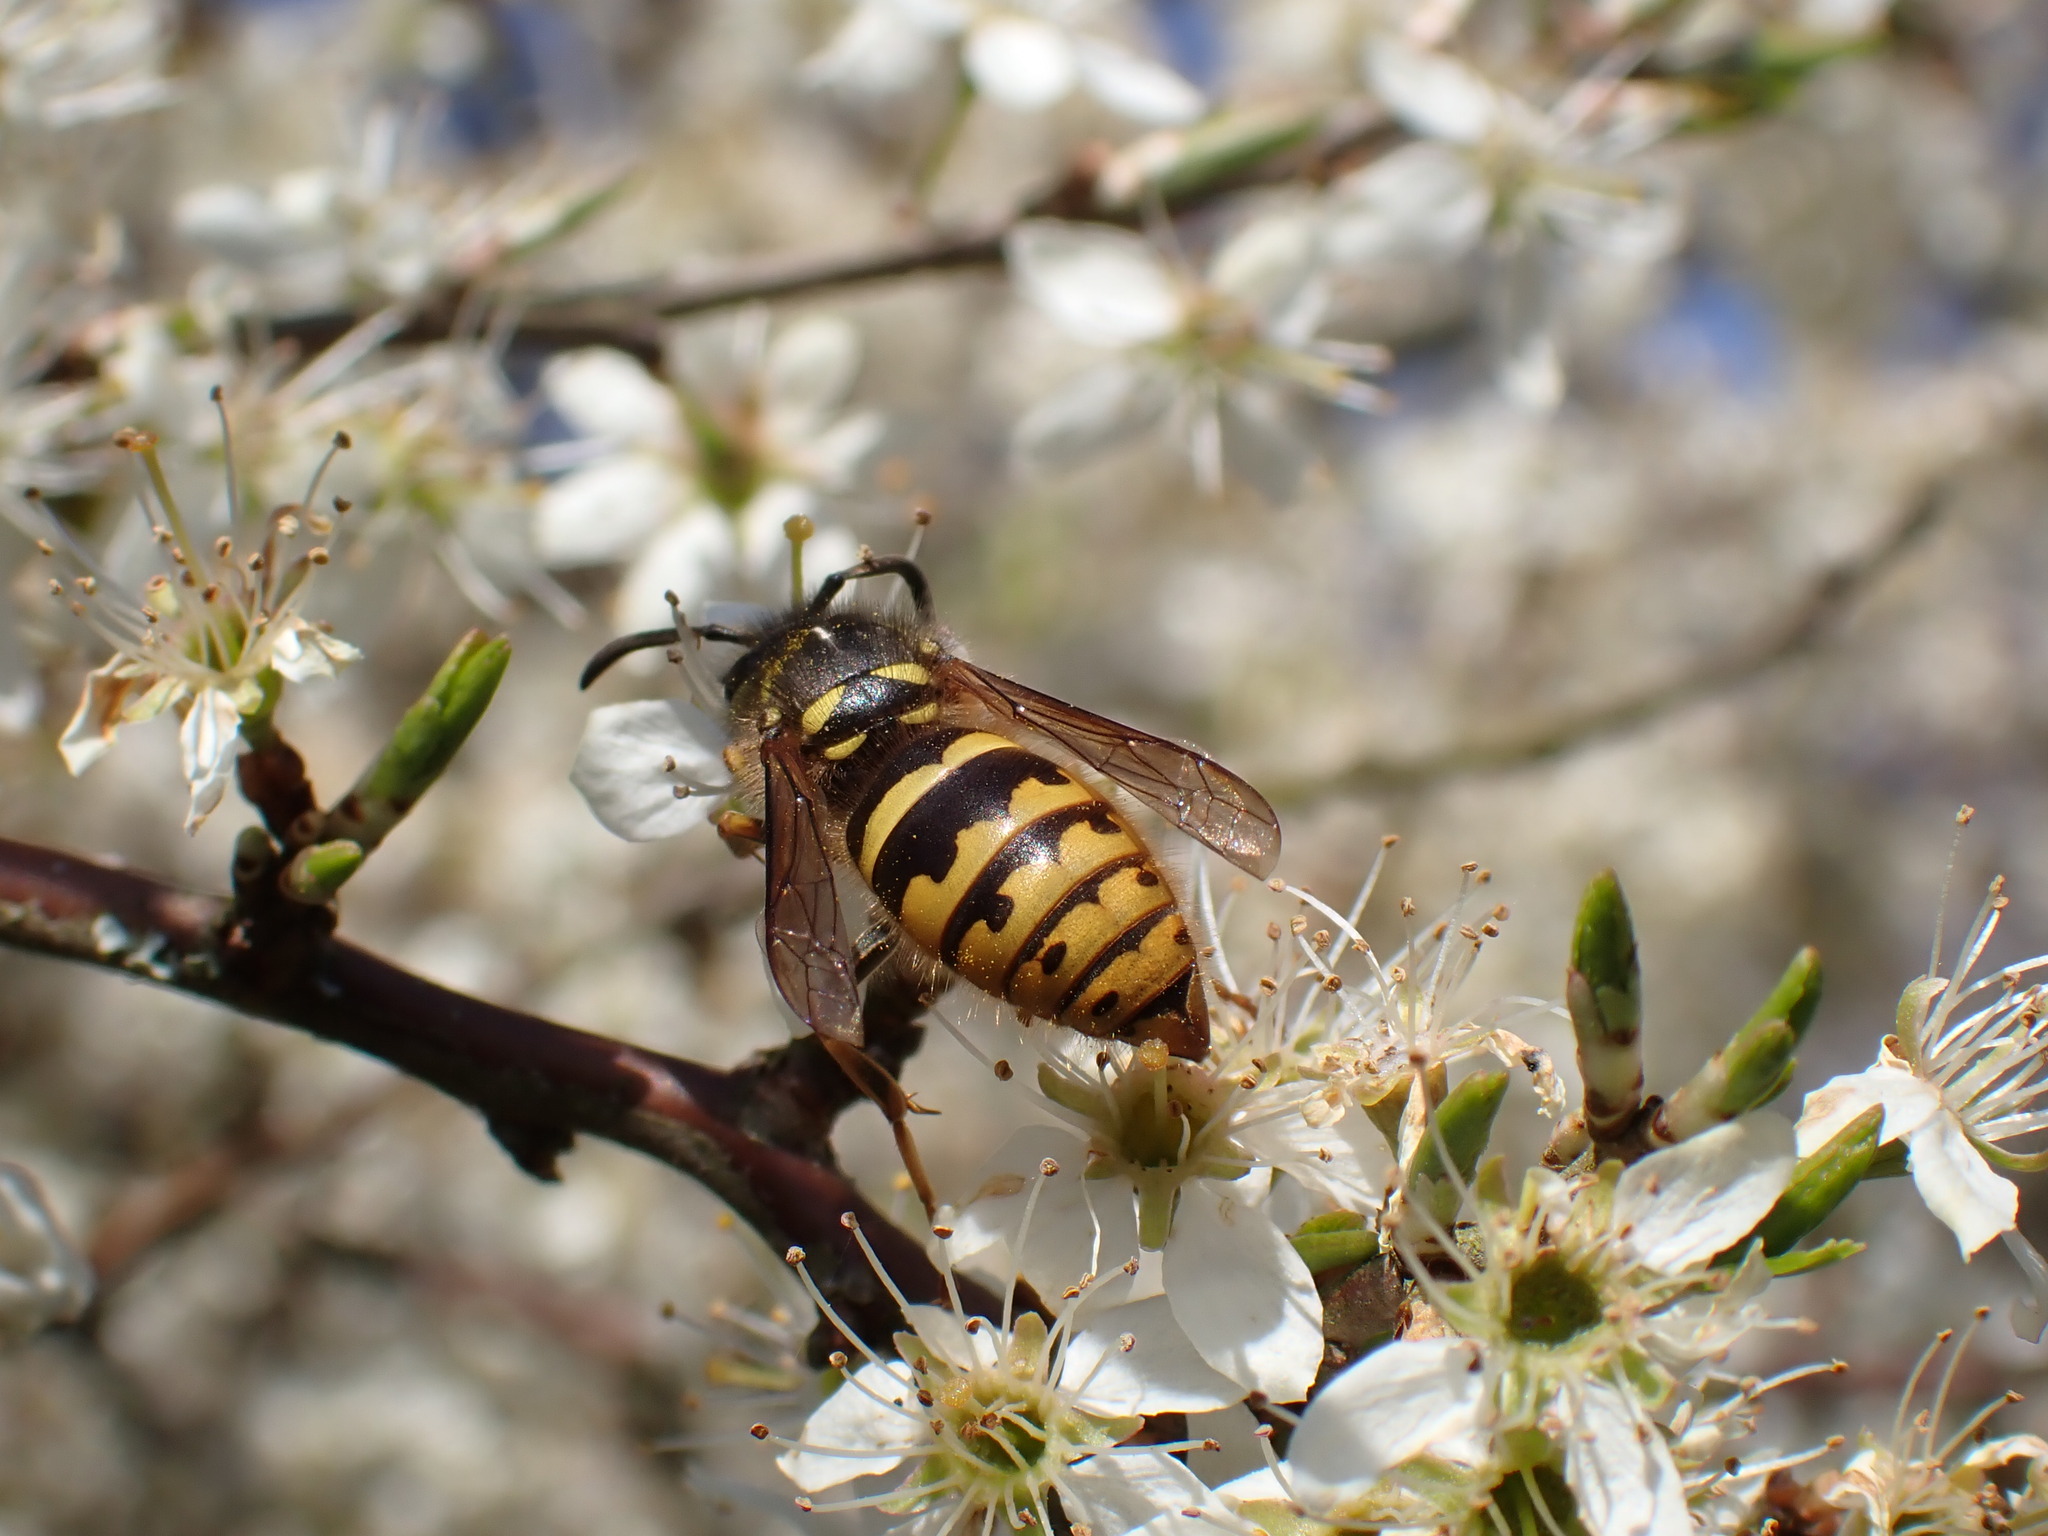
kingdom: Animalia
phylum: Arthropoda
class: Insecta
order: Hymenoptera
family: Vespidae
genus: Vespula
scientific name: Vespula vulgaris
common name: Common wasp
